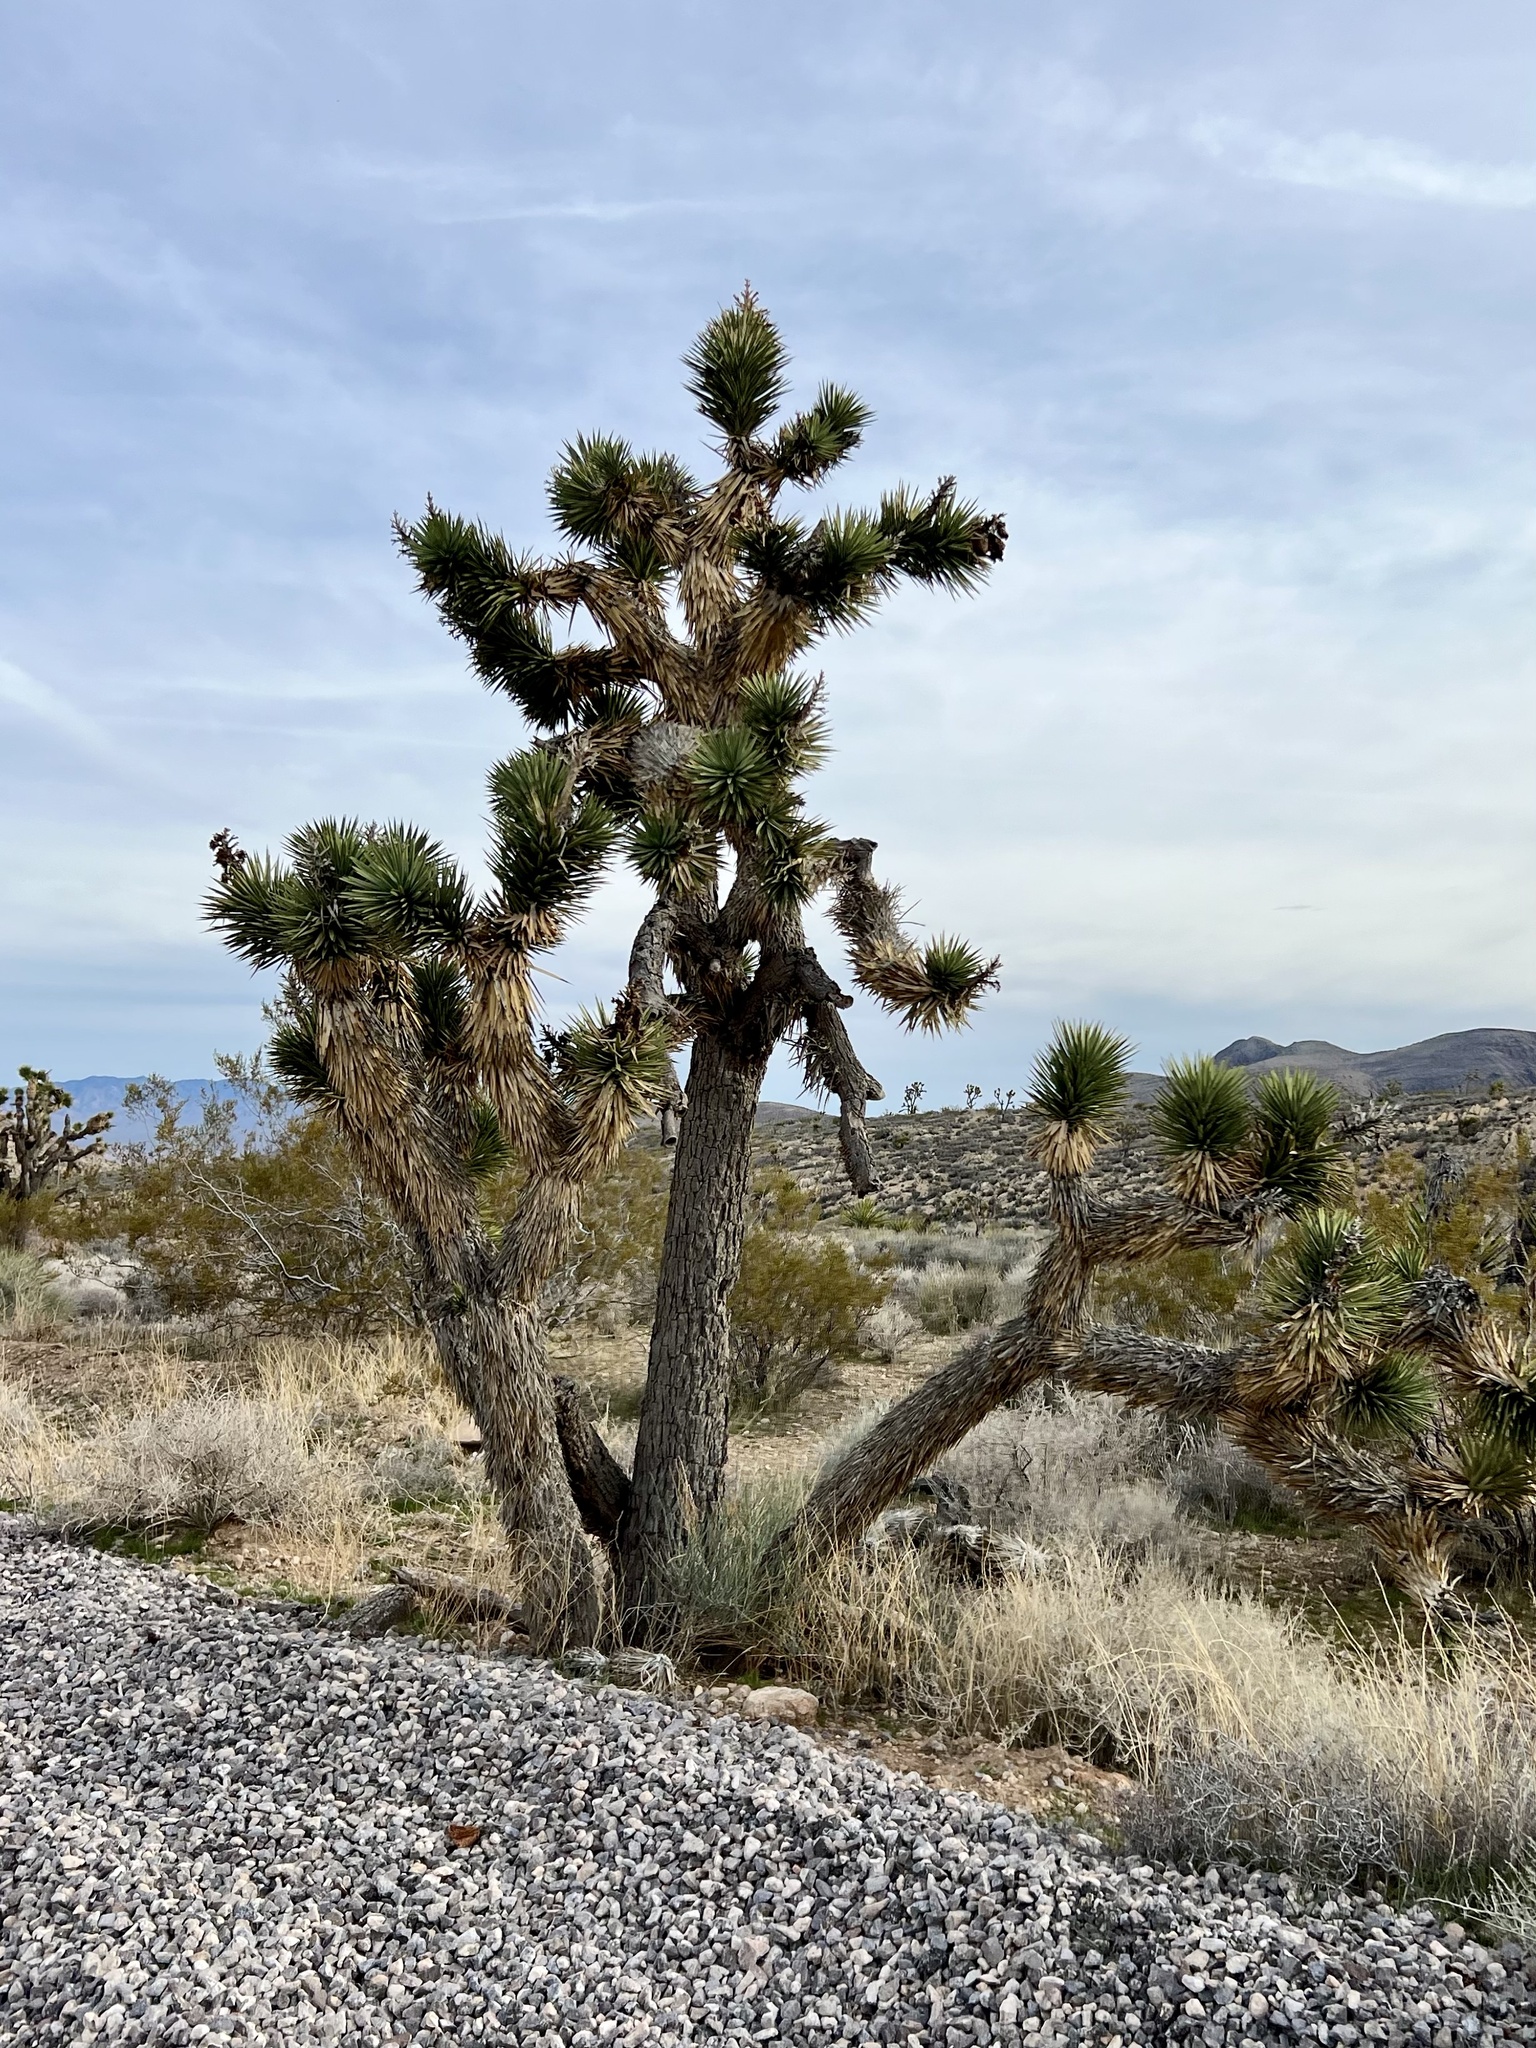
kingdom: Plantae
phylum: Tracheophyta
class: Liliopsida
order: Asparagales
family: Asparagaceae
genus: Yucca
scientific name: Yucca brevifolia
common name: Joshua tree
